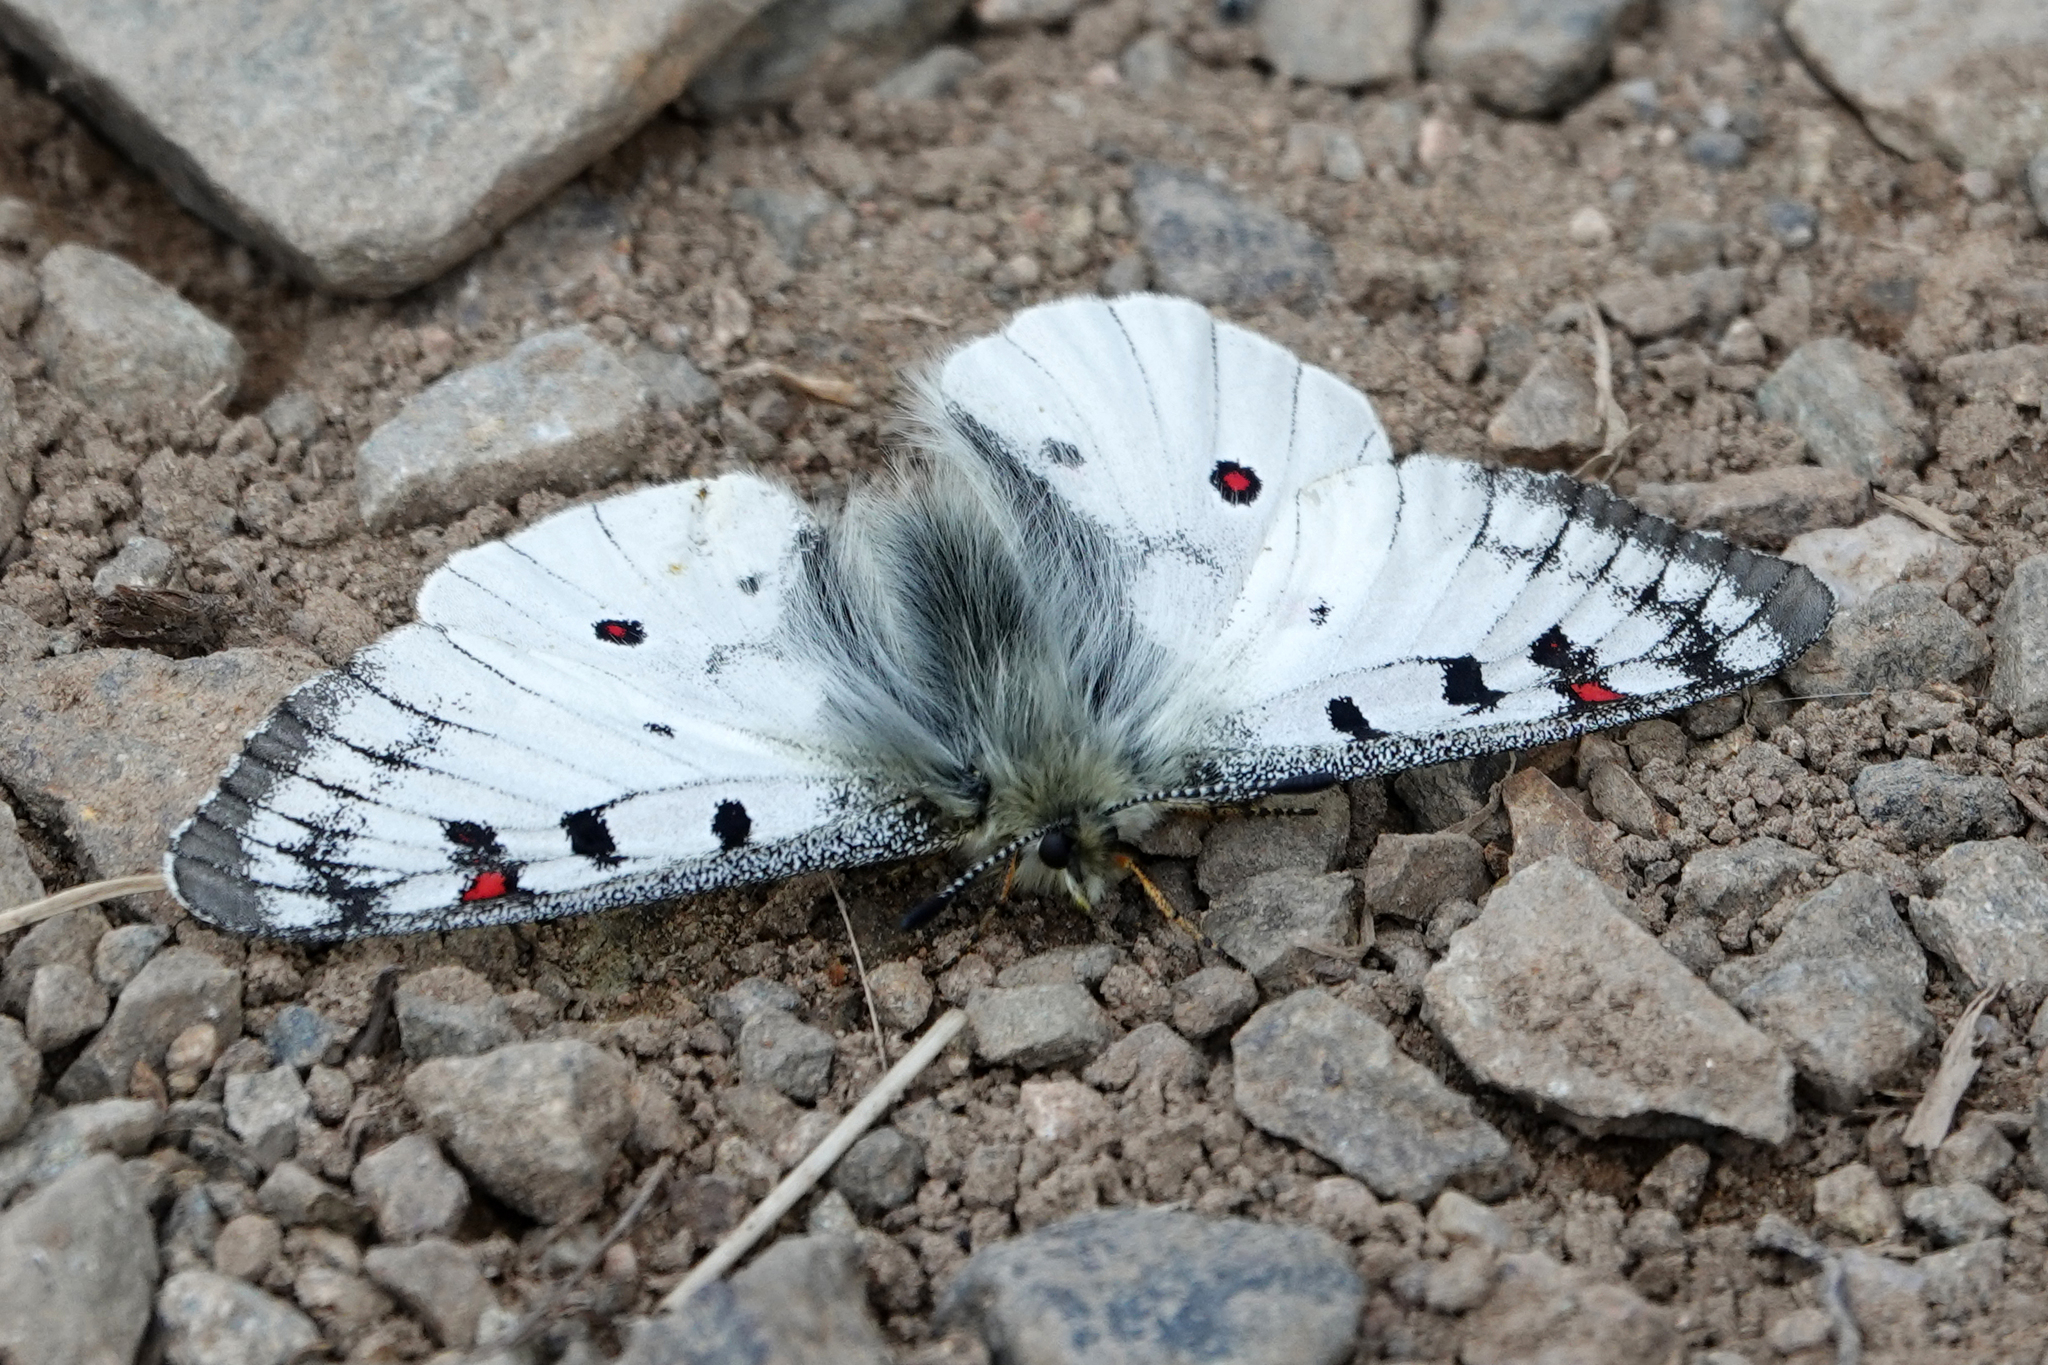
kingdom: Animalia
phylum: Arthropoda
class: Insecta
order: Lepidoptera
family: Papilionidae
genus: Parnassius
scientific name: Parnassius smintheus
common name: Mountain parnassian
